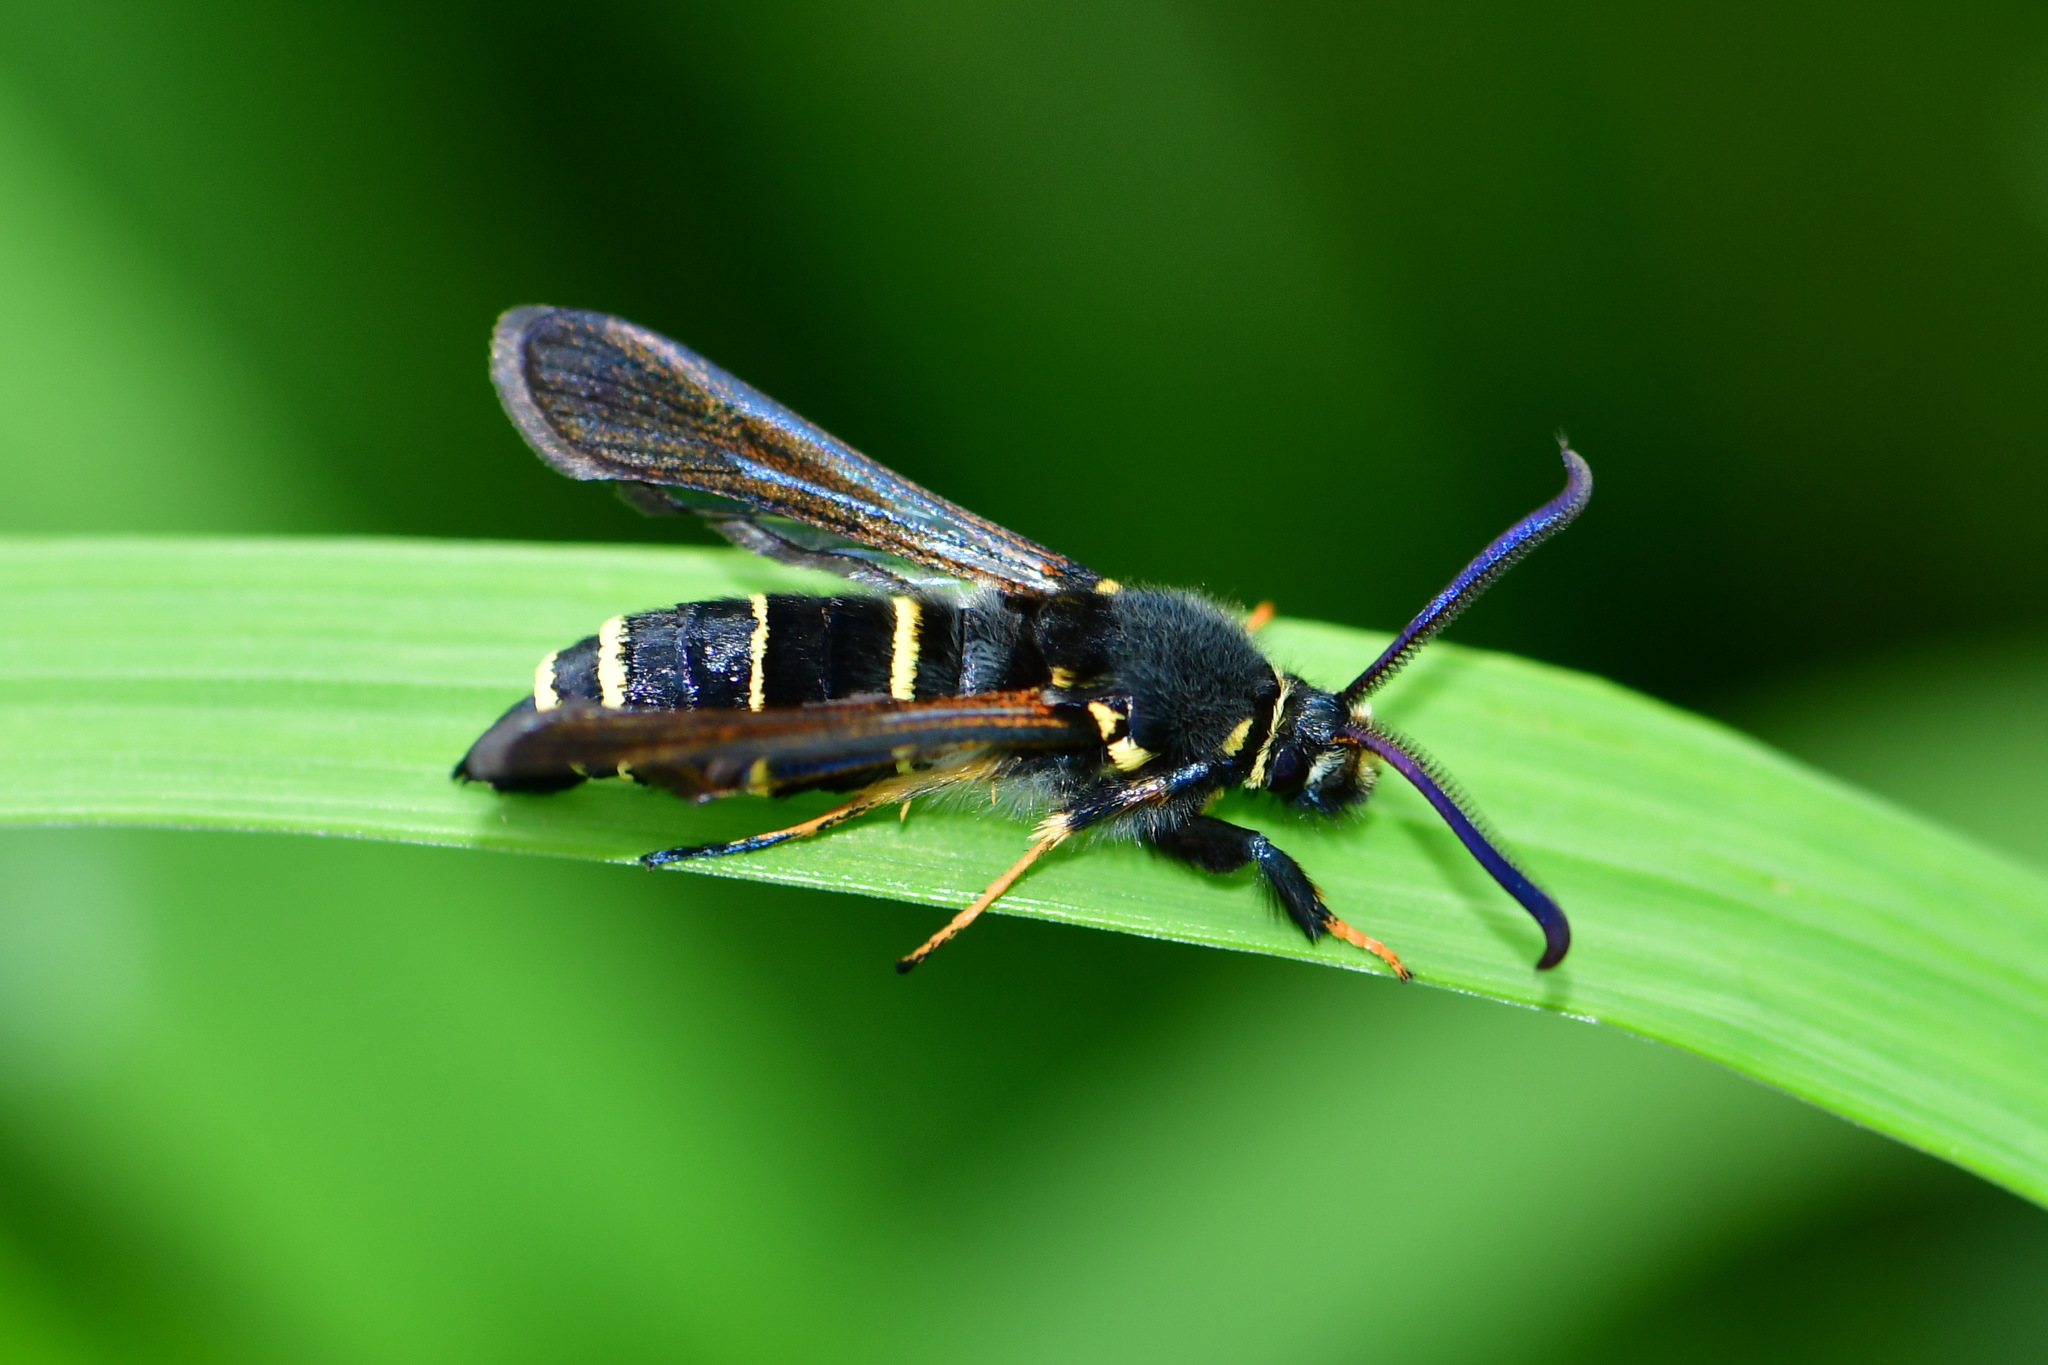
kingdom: Animalia
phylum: Arthropoda
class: Insecta
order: Lepidoptera
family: Sesiidae
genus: Paranthrene
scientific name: Paranthrene tabaniformis
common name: Dusky clearwing
